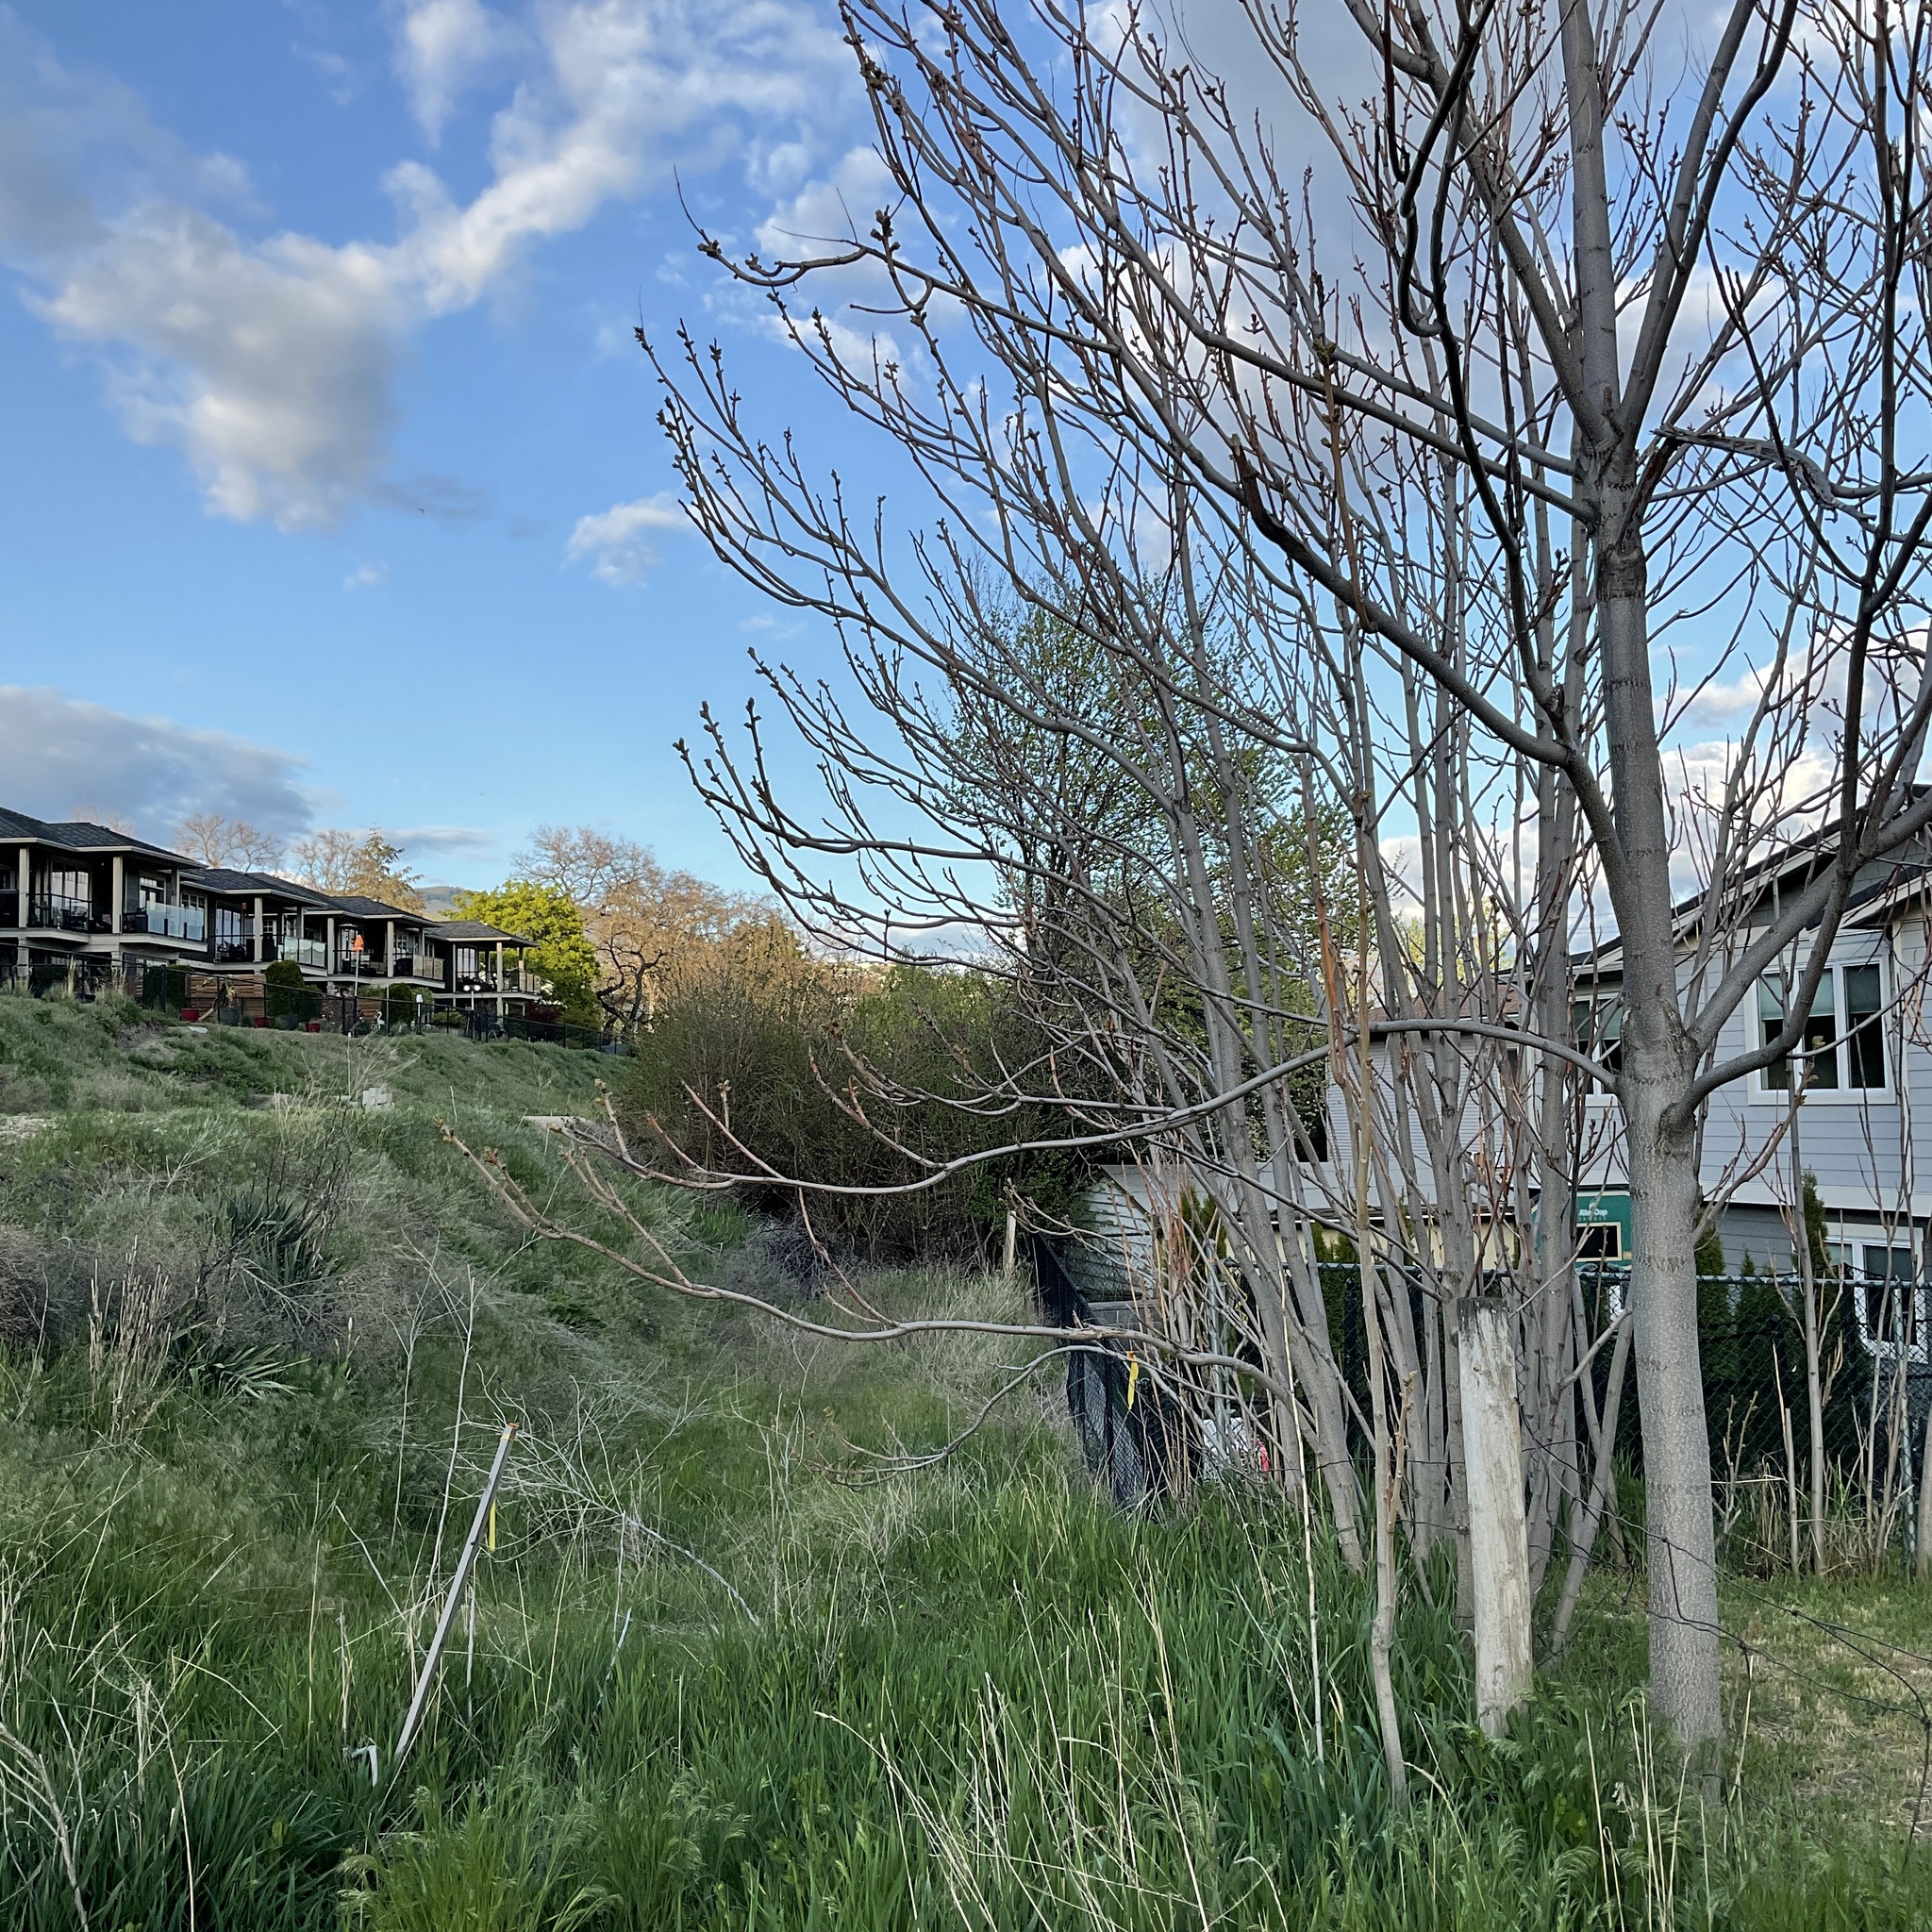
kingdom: Plantae
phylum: Tracheophyta
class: Magnoliopsida
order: Sapindales
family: Simaroubaceae
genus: Ailanthus
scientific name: Ailanthus altissima
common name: Tree-of-heaven
